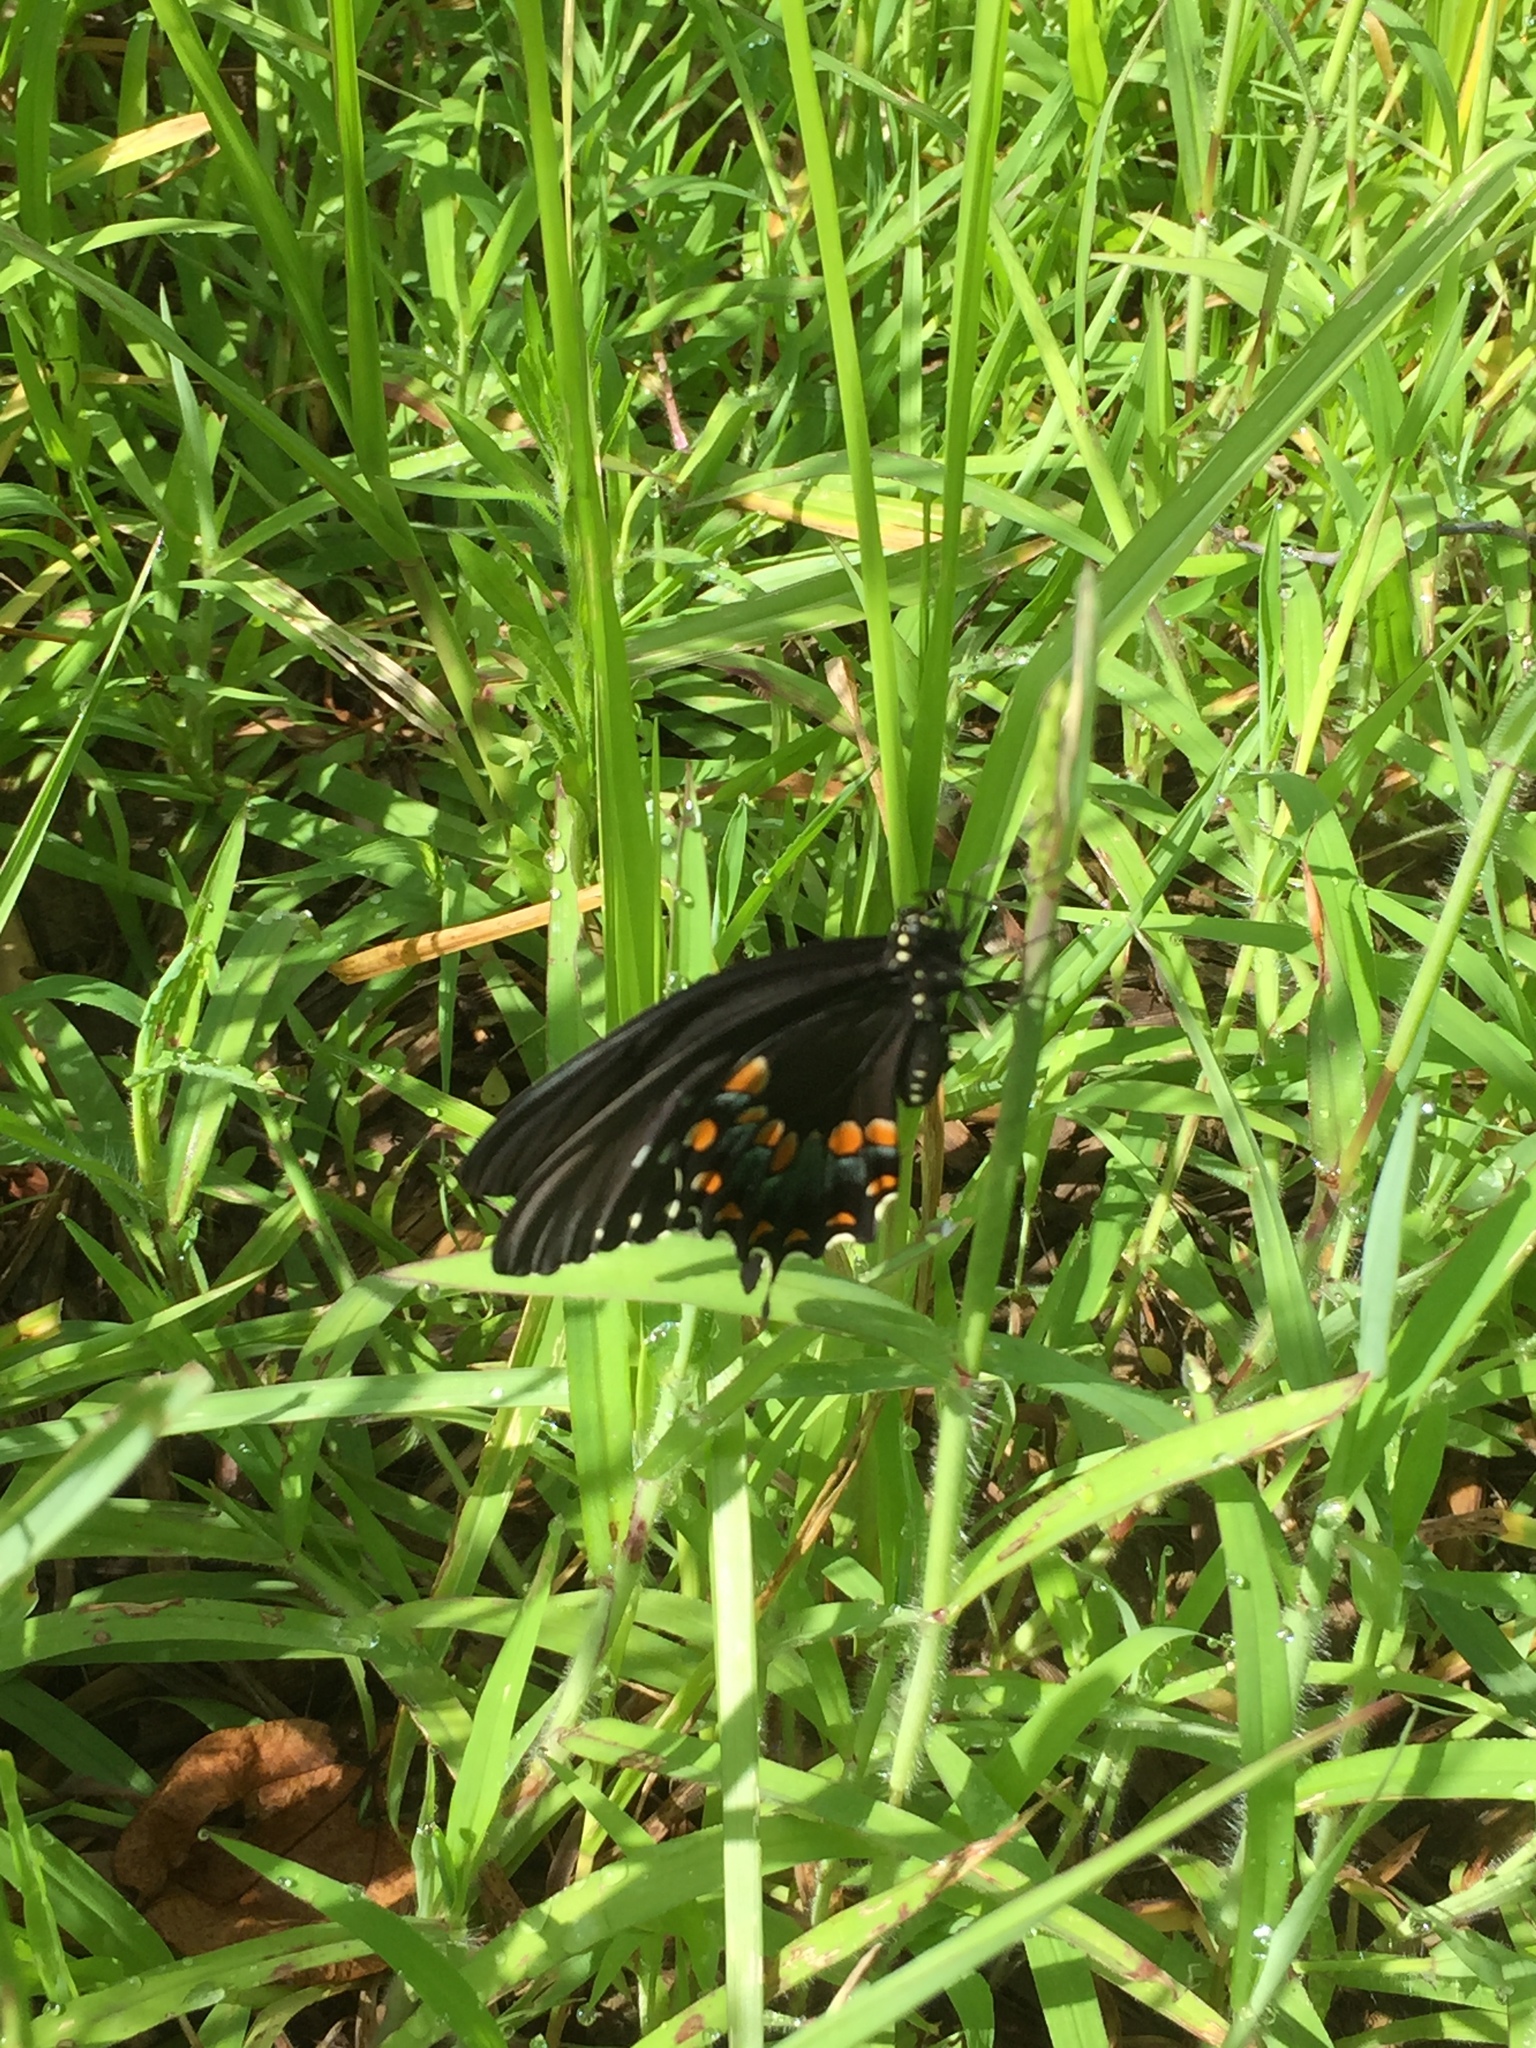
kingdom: Animalia
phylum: Arthropoda
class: Insecta
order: Lepidoptera
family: Papilionidae
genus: Papilio
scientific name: Papilio troilus
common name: Spicebush swallowtail
